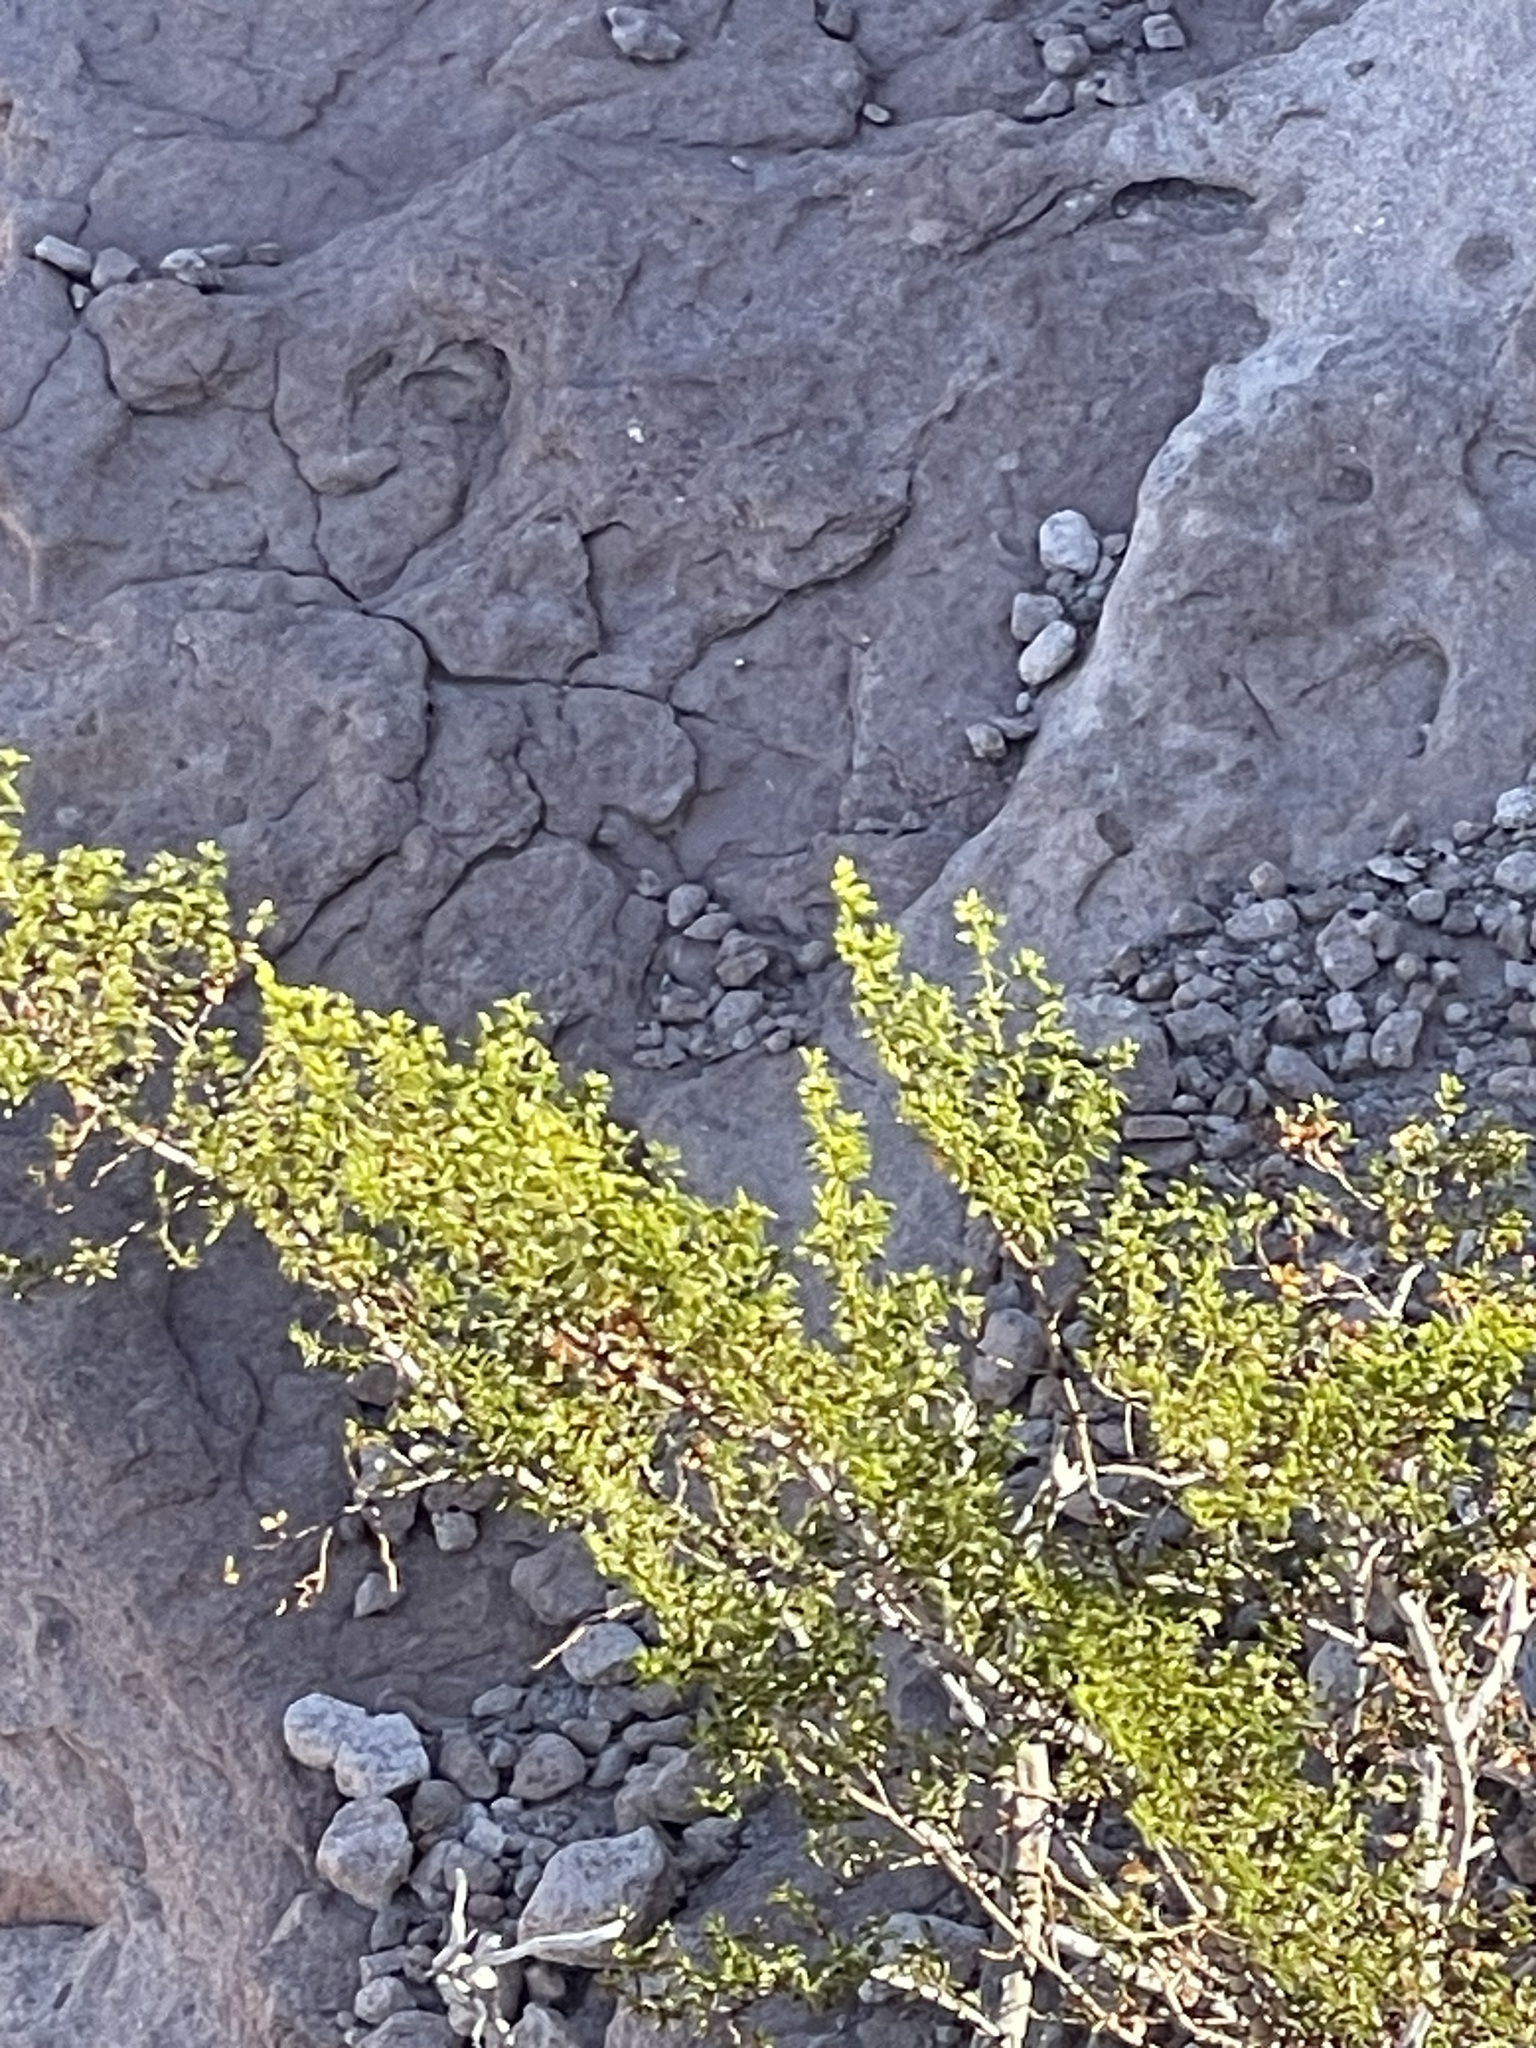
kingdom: Plantae
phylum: Tracheophyta
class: Magnoliopsida
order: Zygophyllales
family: Zygophyllaceae
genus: Larrea
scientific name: Larrea tridentata
